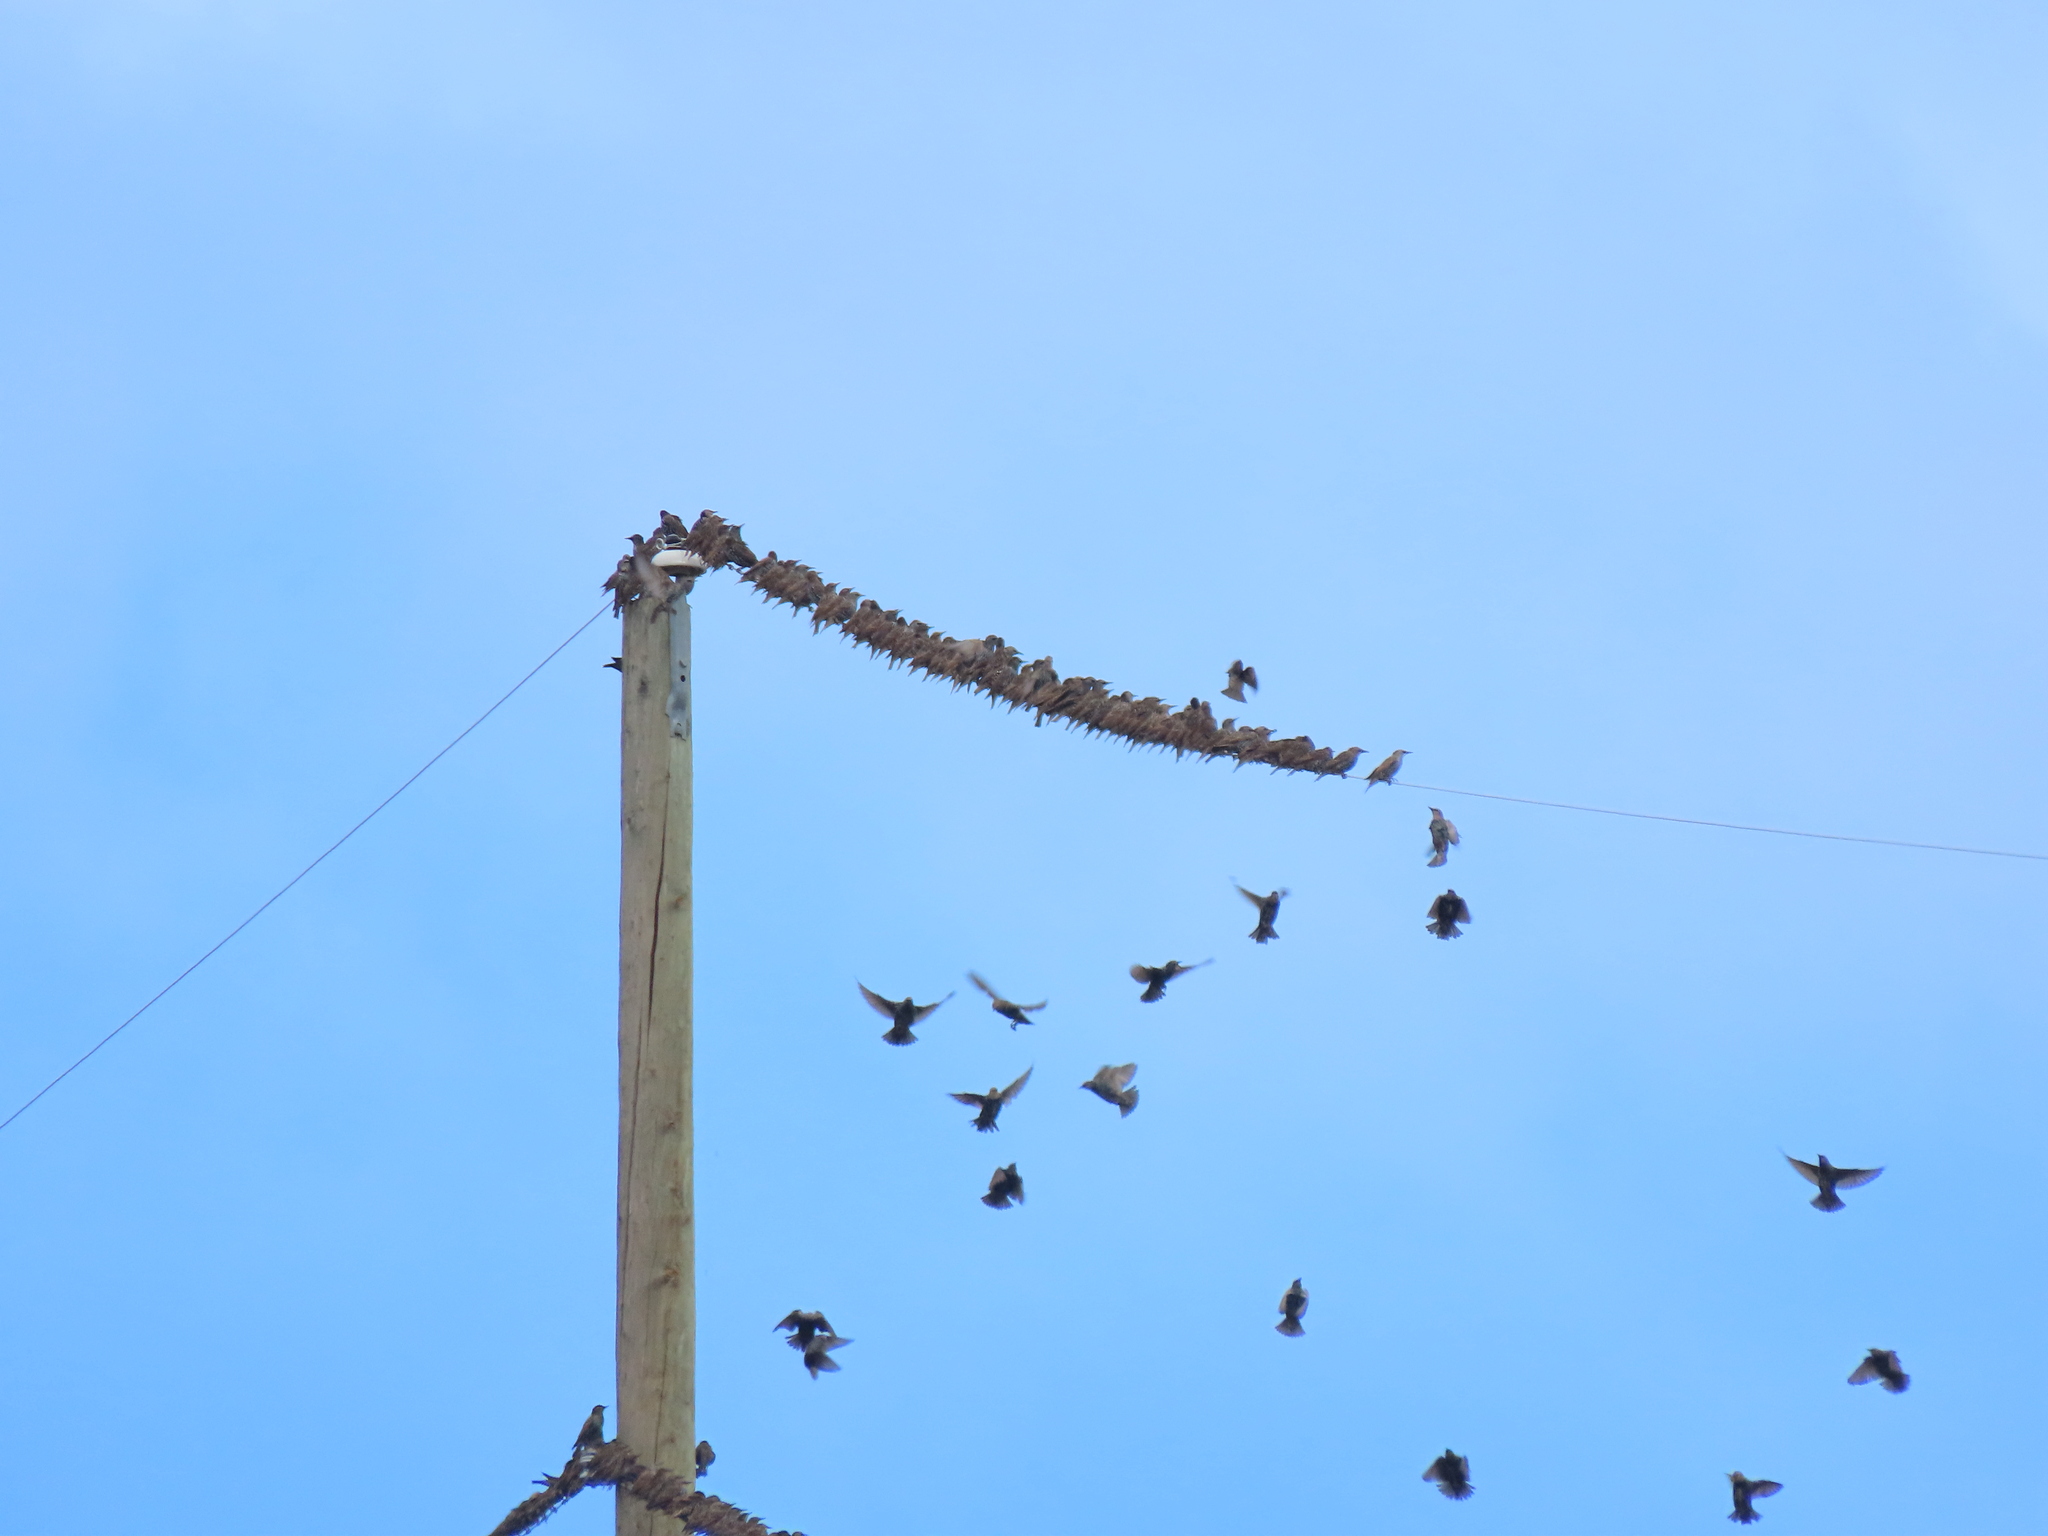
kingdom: Animalia
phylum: Chordata
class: Aves
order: Passeriformes
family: Sturnidae
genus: Sturnus
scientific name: Sturnus vulgaris
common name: Common starling
